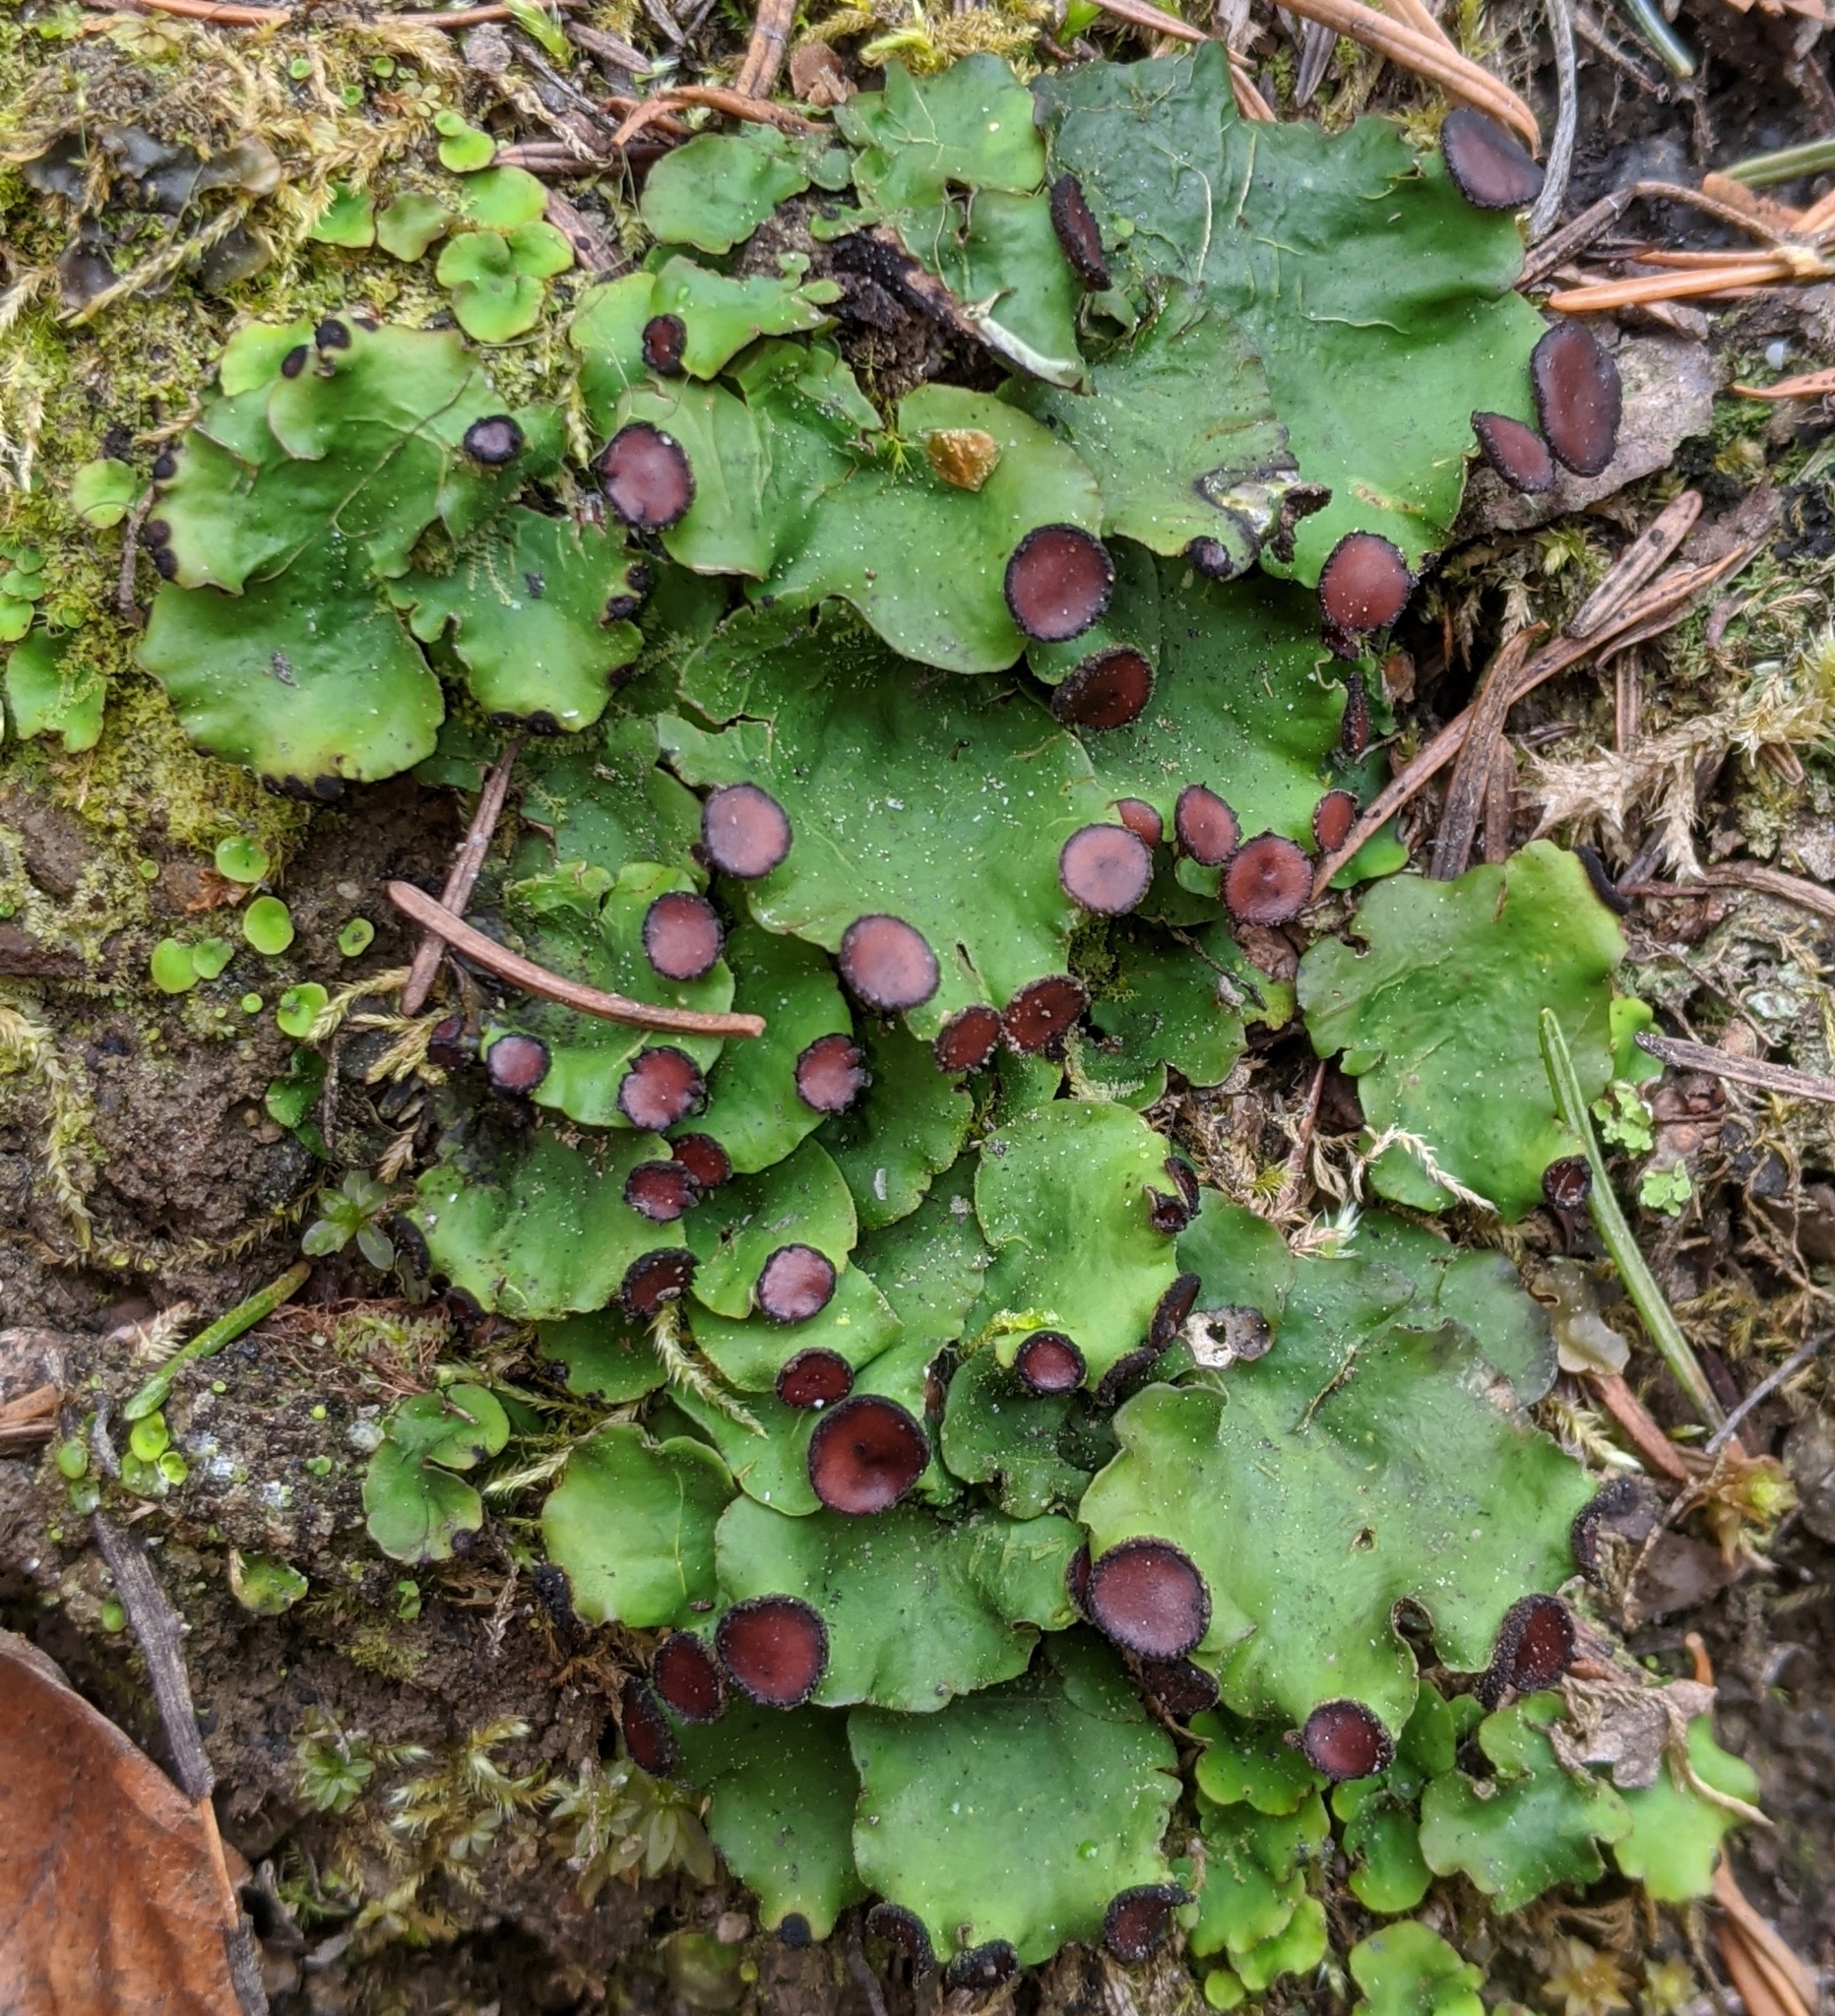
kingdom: Fungi
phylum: Ascomycota
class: Lecanoromycetes
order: Peltigerales
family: Peltigeraceae
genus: Peltigera
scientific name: Peltigera venosa
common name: Pixie gowns lichen
